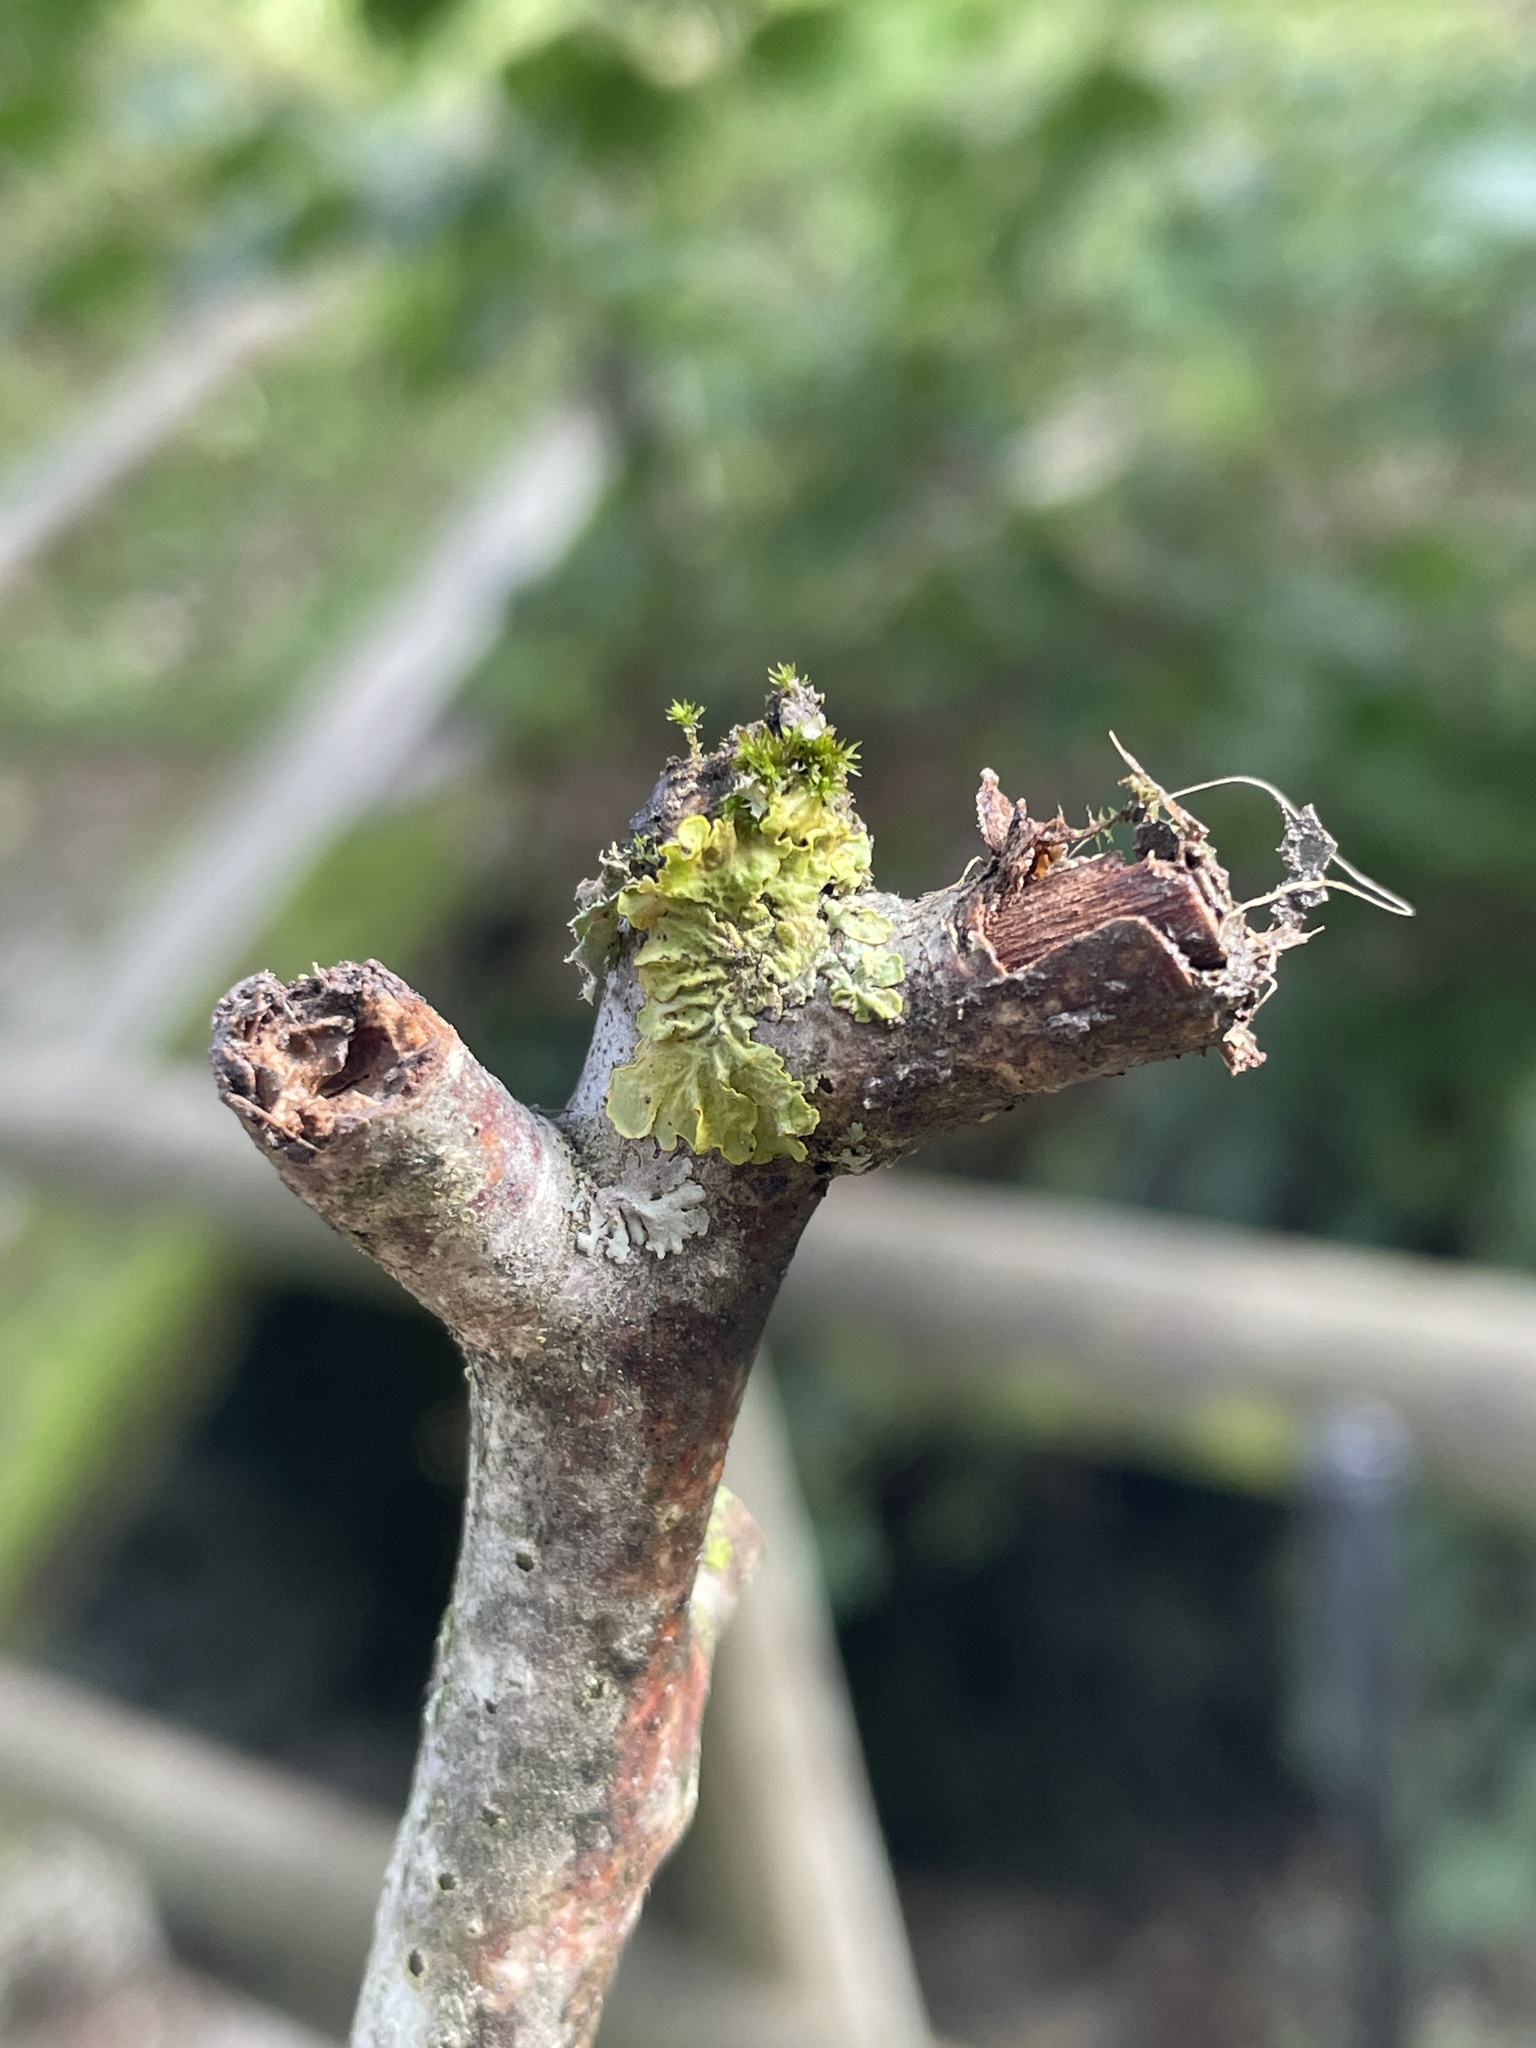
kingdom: Fungi
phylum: Ascomycota
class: Lecanoromycetes
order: Teloschistales
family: Teloschistaceae
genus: Xanthoria
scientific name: Xanthoria parietina
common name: Common orange lichen
